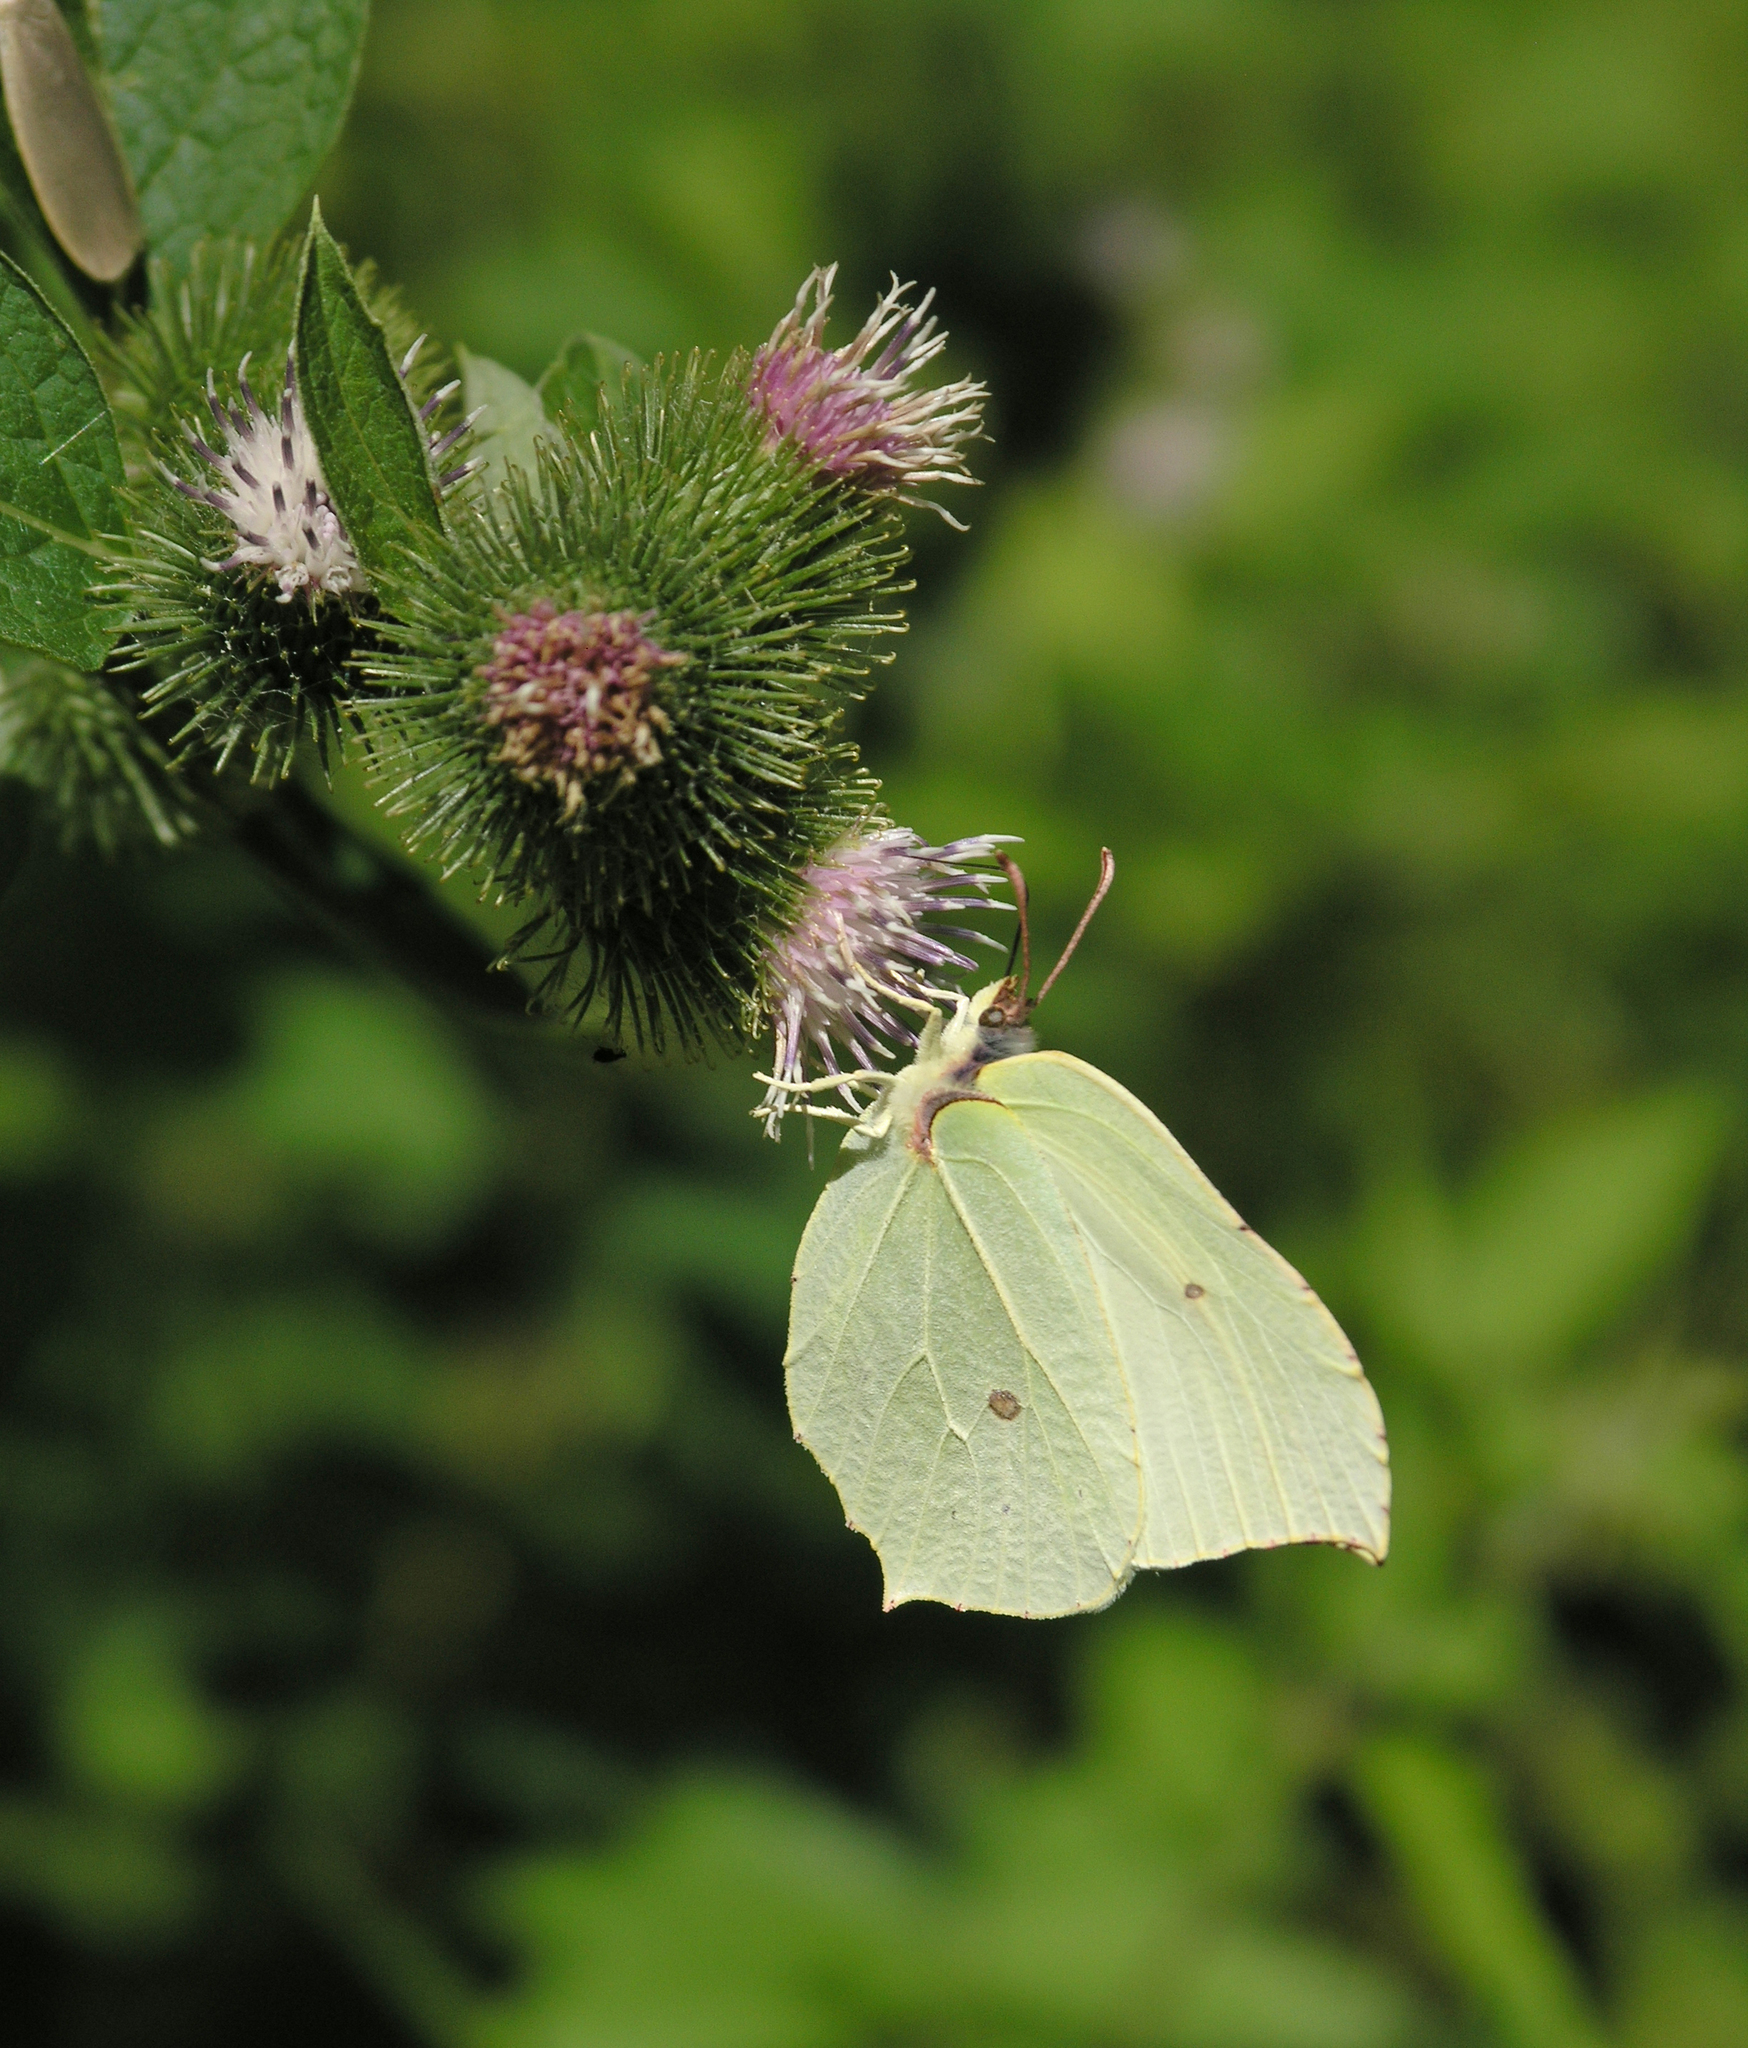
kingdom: Plantae
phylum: Tracheophyta
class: Magnoliopsida
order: Asterales
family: Asteraceae
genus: Arctium
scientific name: Arctium minus
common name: Lesser burdock
